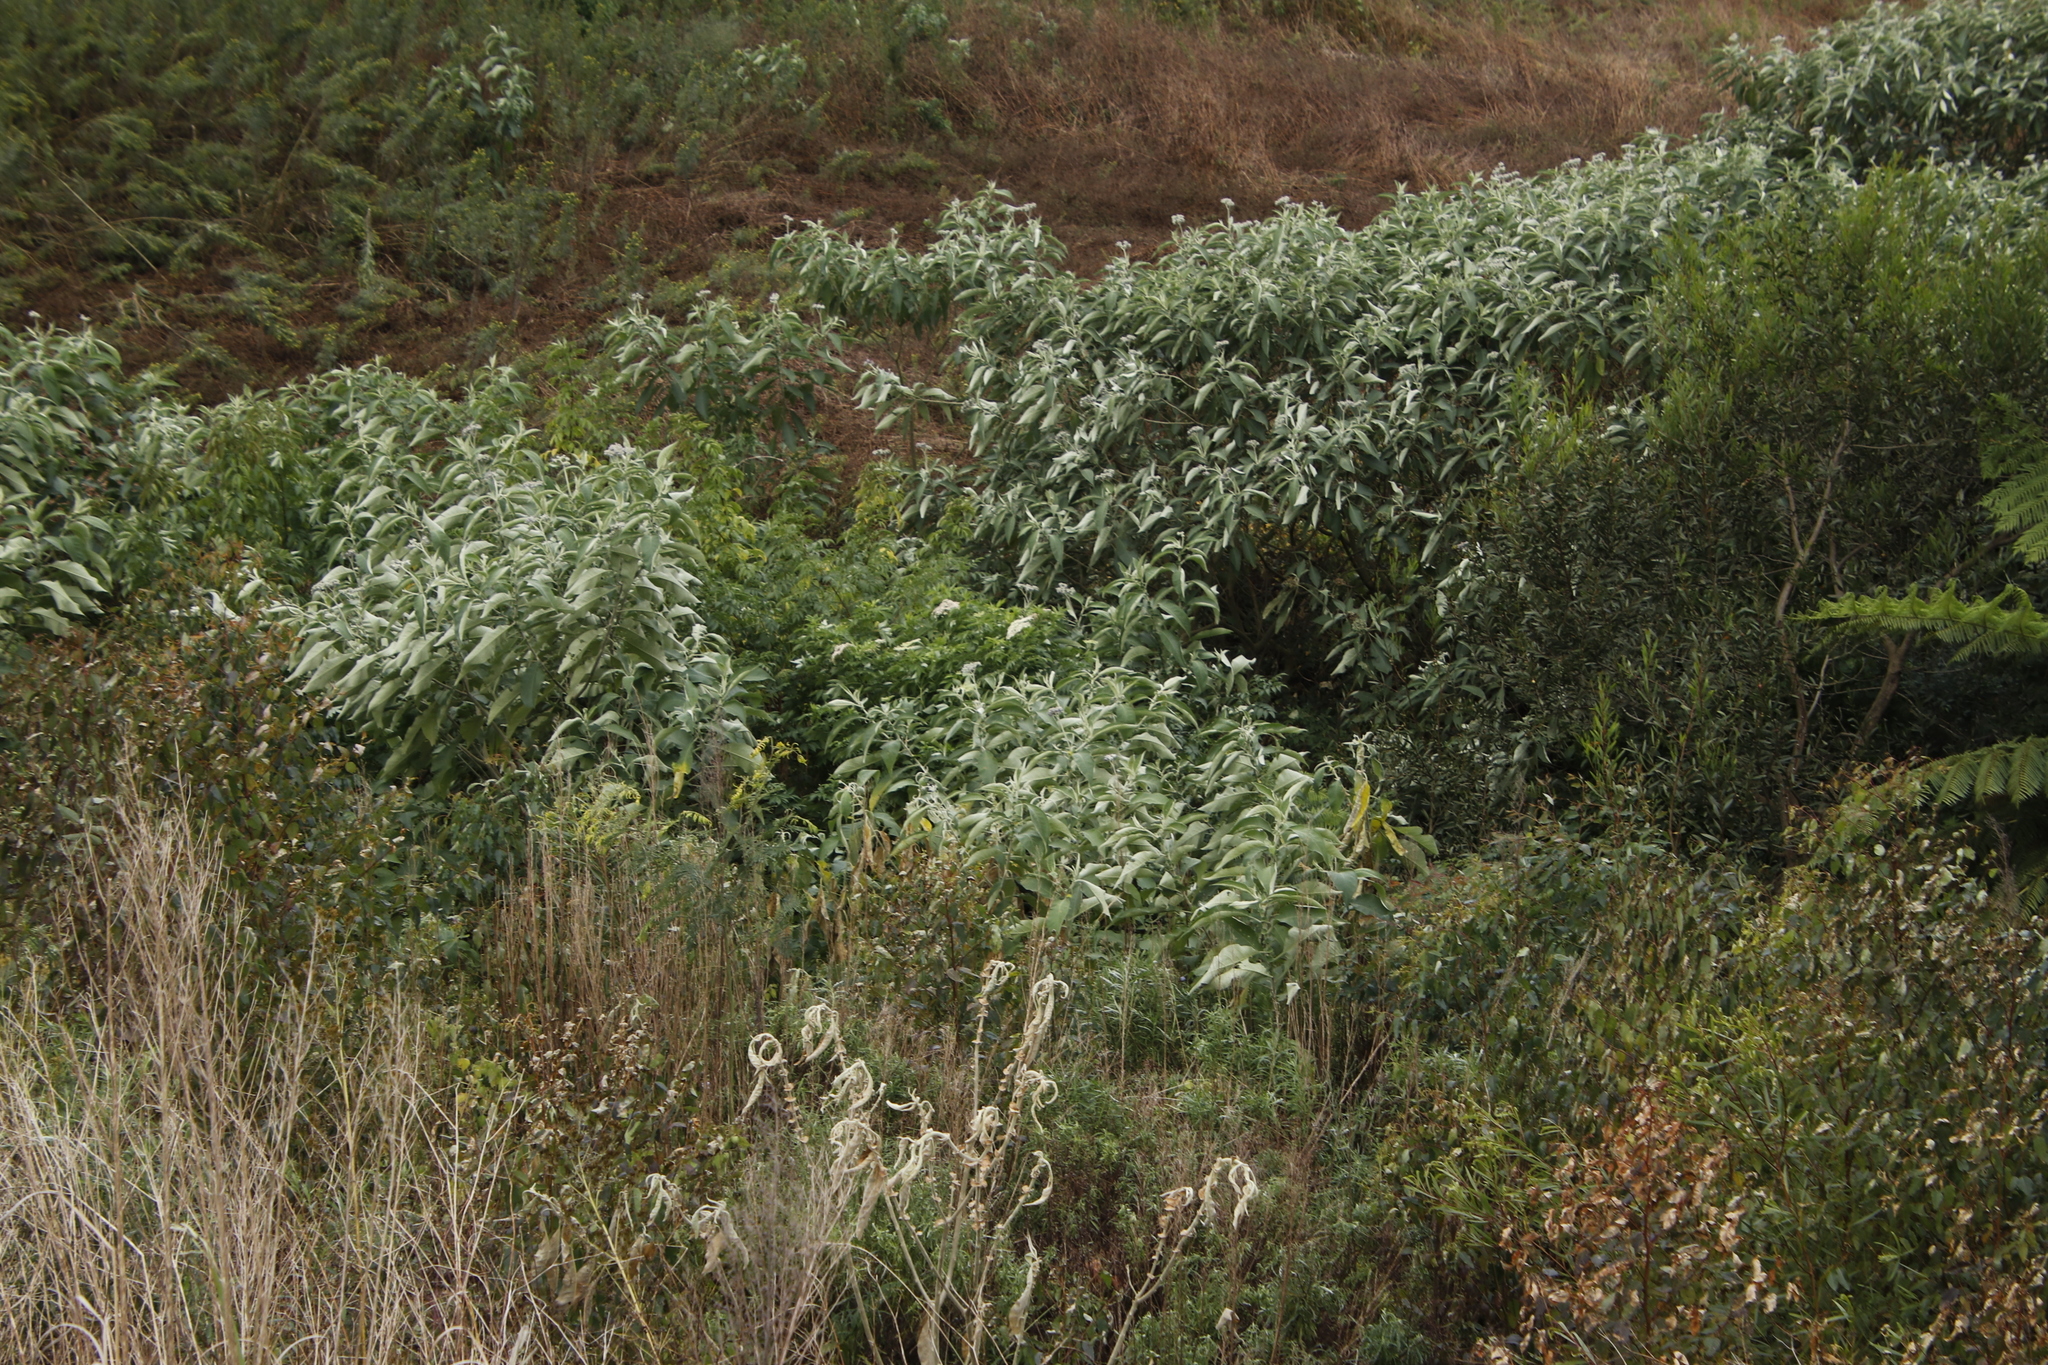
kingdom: Plantae
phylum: Tracheophyta
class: Magnoliopsida
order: Solanales
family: Solanaceae
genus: Solanum
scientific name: Solanum mauritianum
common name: Earleaf nightshade
